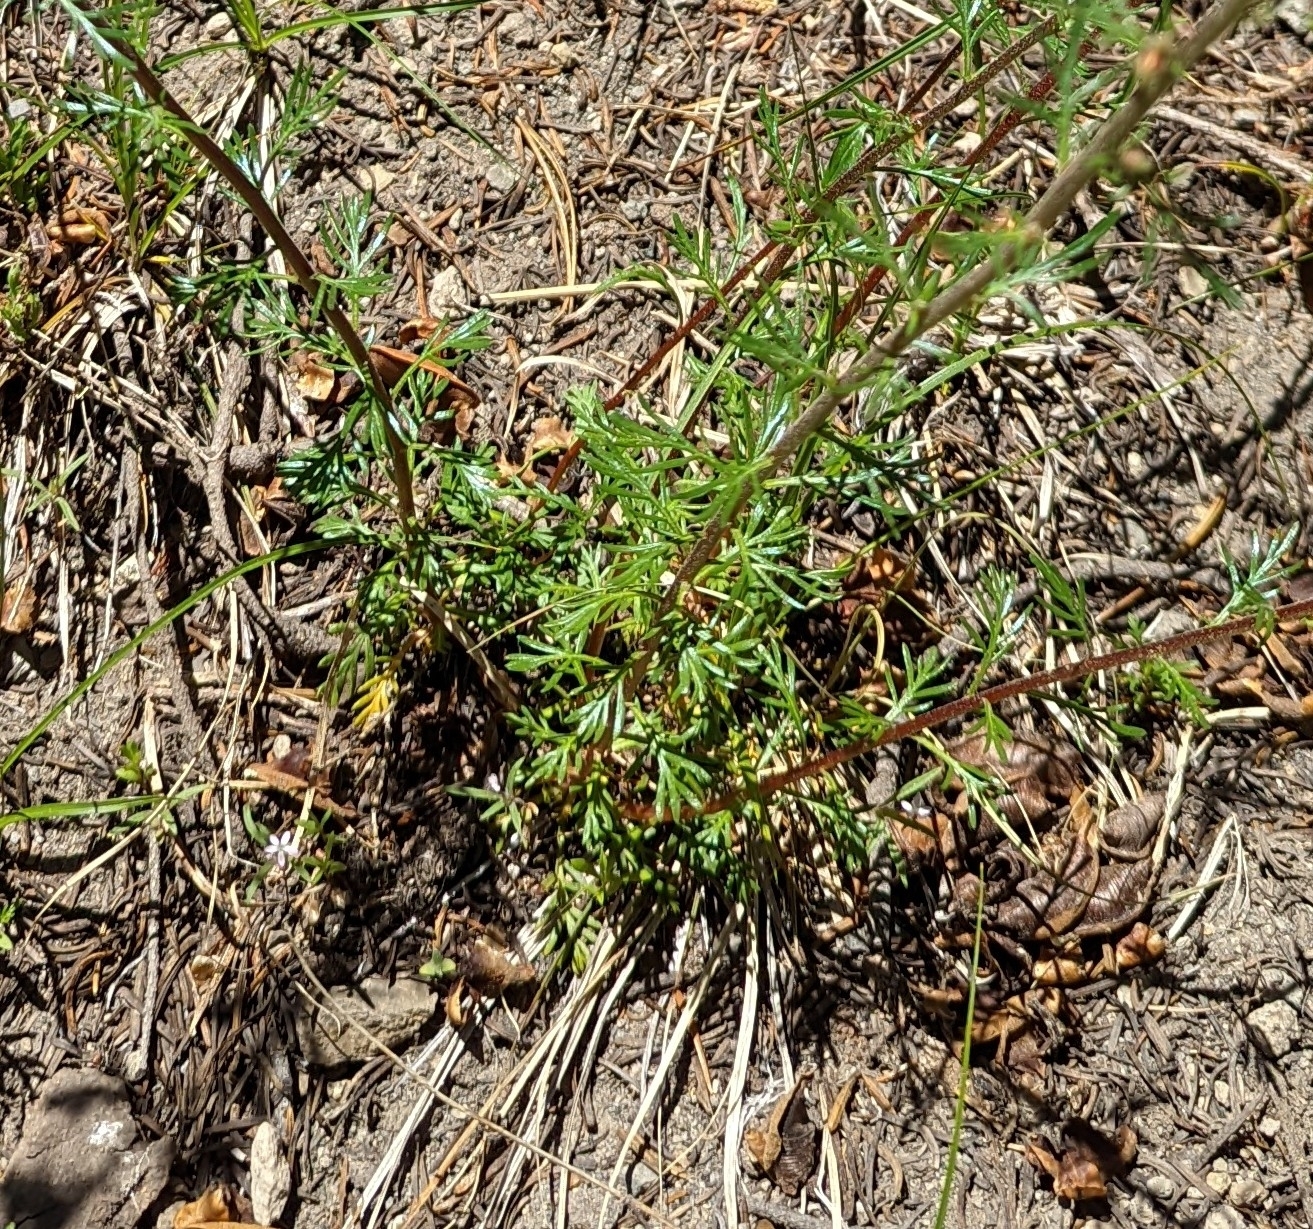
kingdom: Plantae
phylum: Tracheophyta
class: Magnoliopsida
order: Ericales
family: Polemoniaceae
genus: Ipomopsis
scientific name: Ipomopsis aggregata
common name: Scarlet gilia
